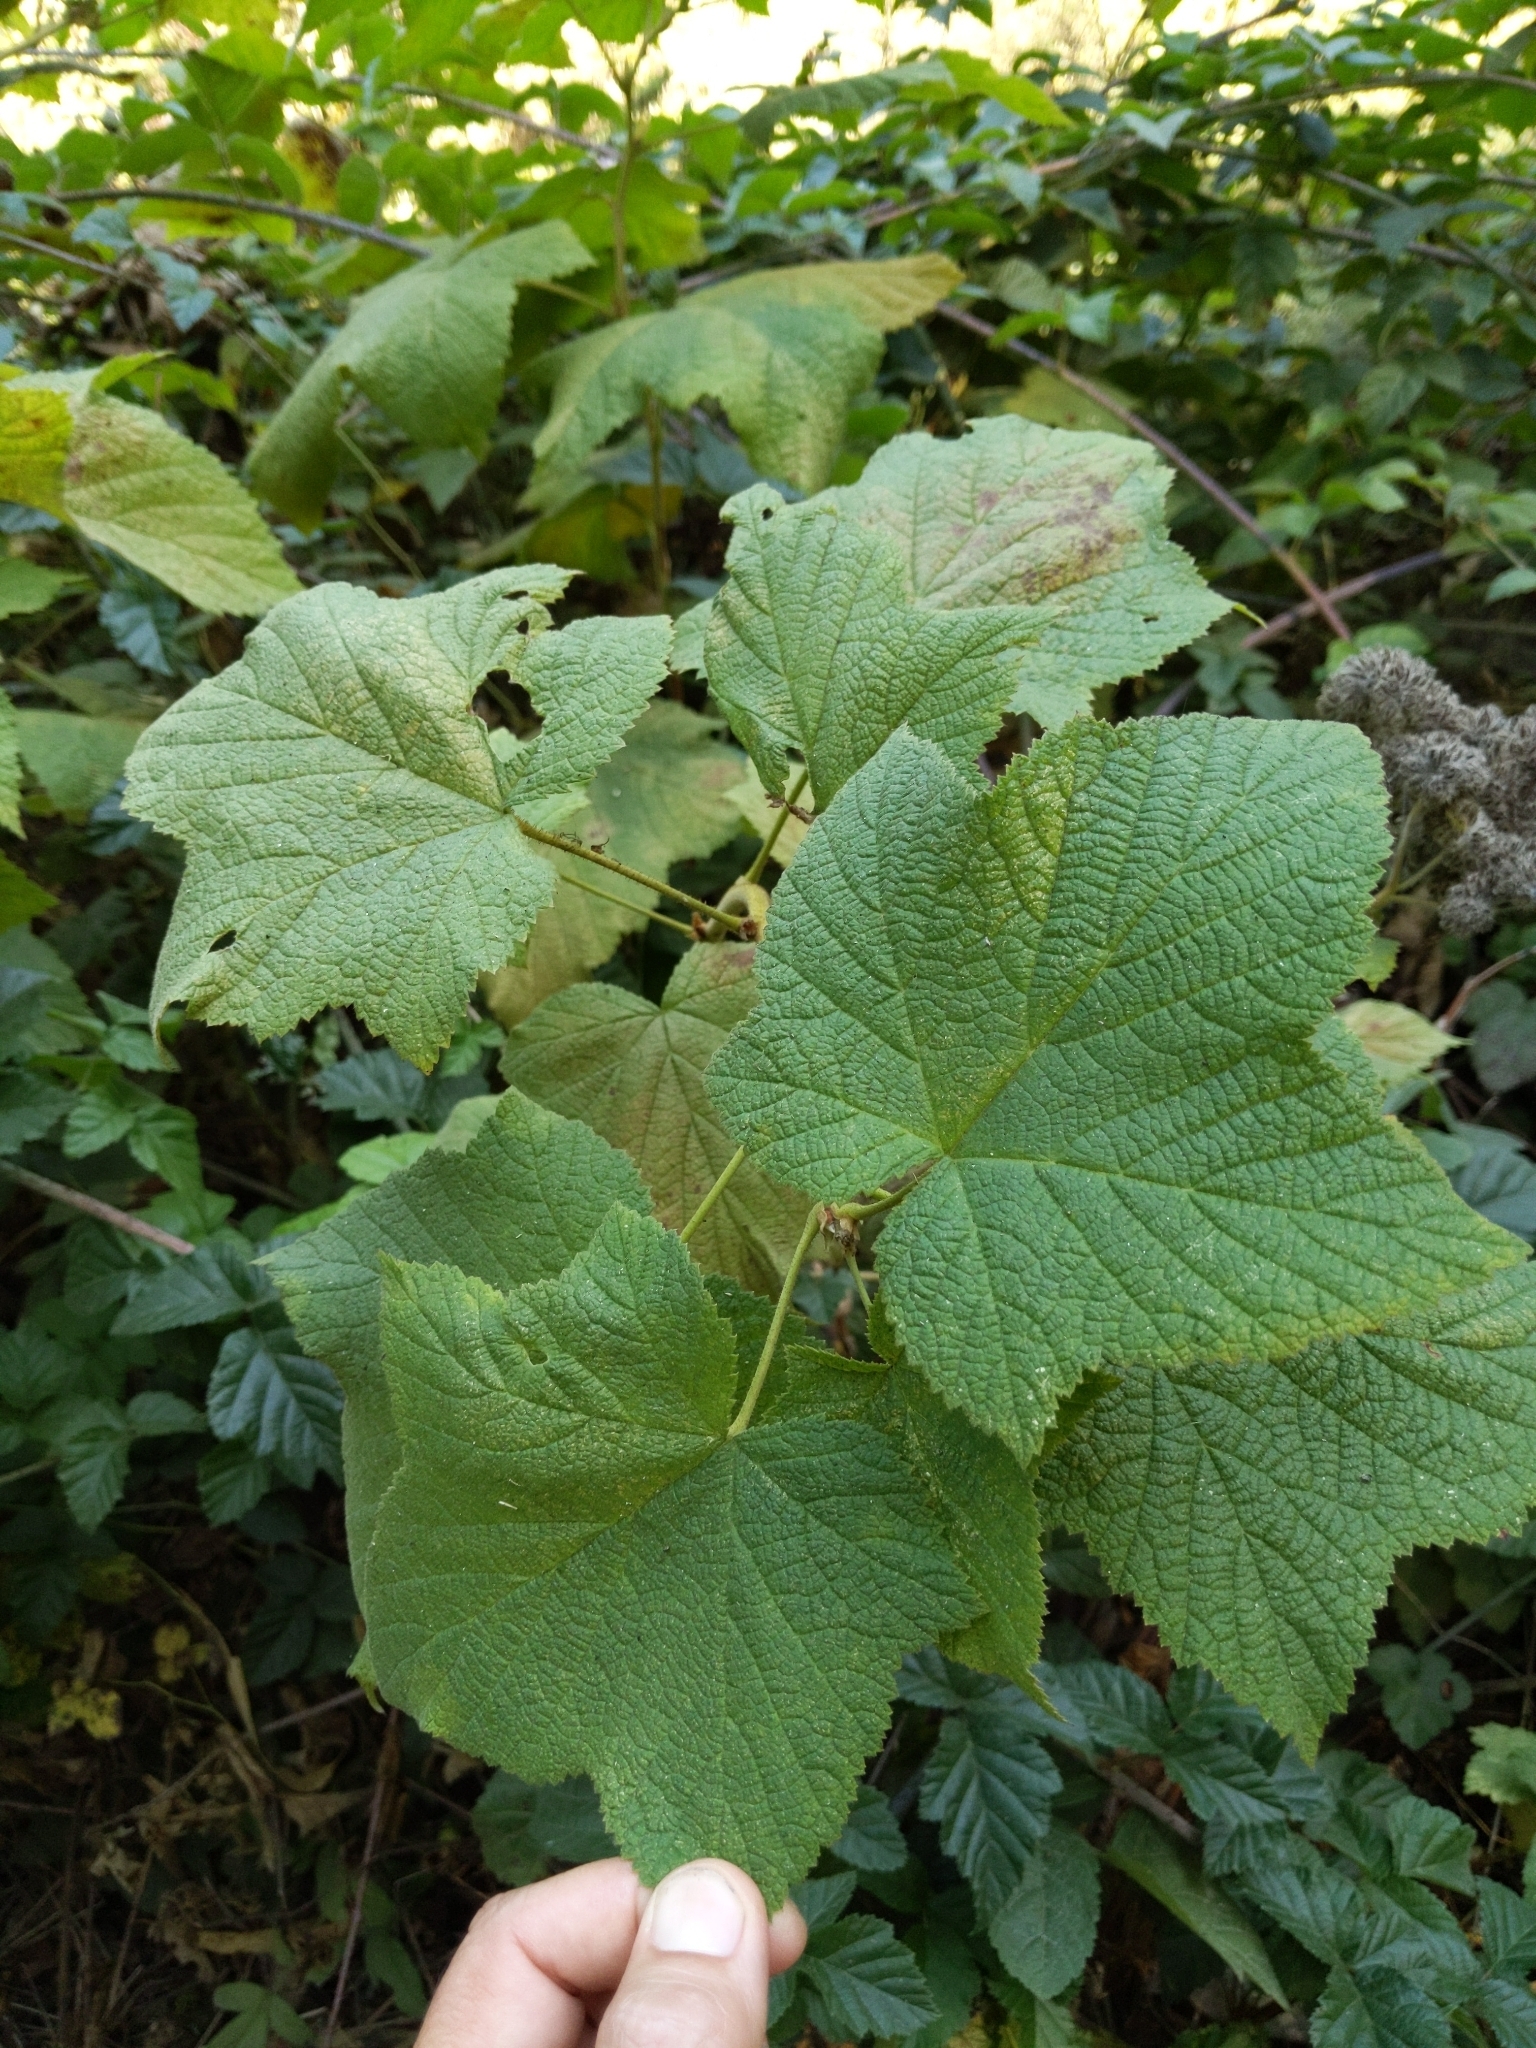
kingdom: Plantae
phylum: Tracheophyta
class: Magnoliopsida
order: Rosales
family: Rosaceae
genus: Rubus
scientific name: Rubus parviflorus
